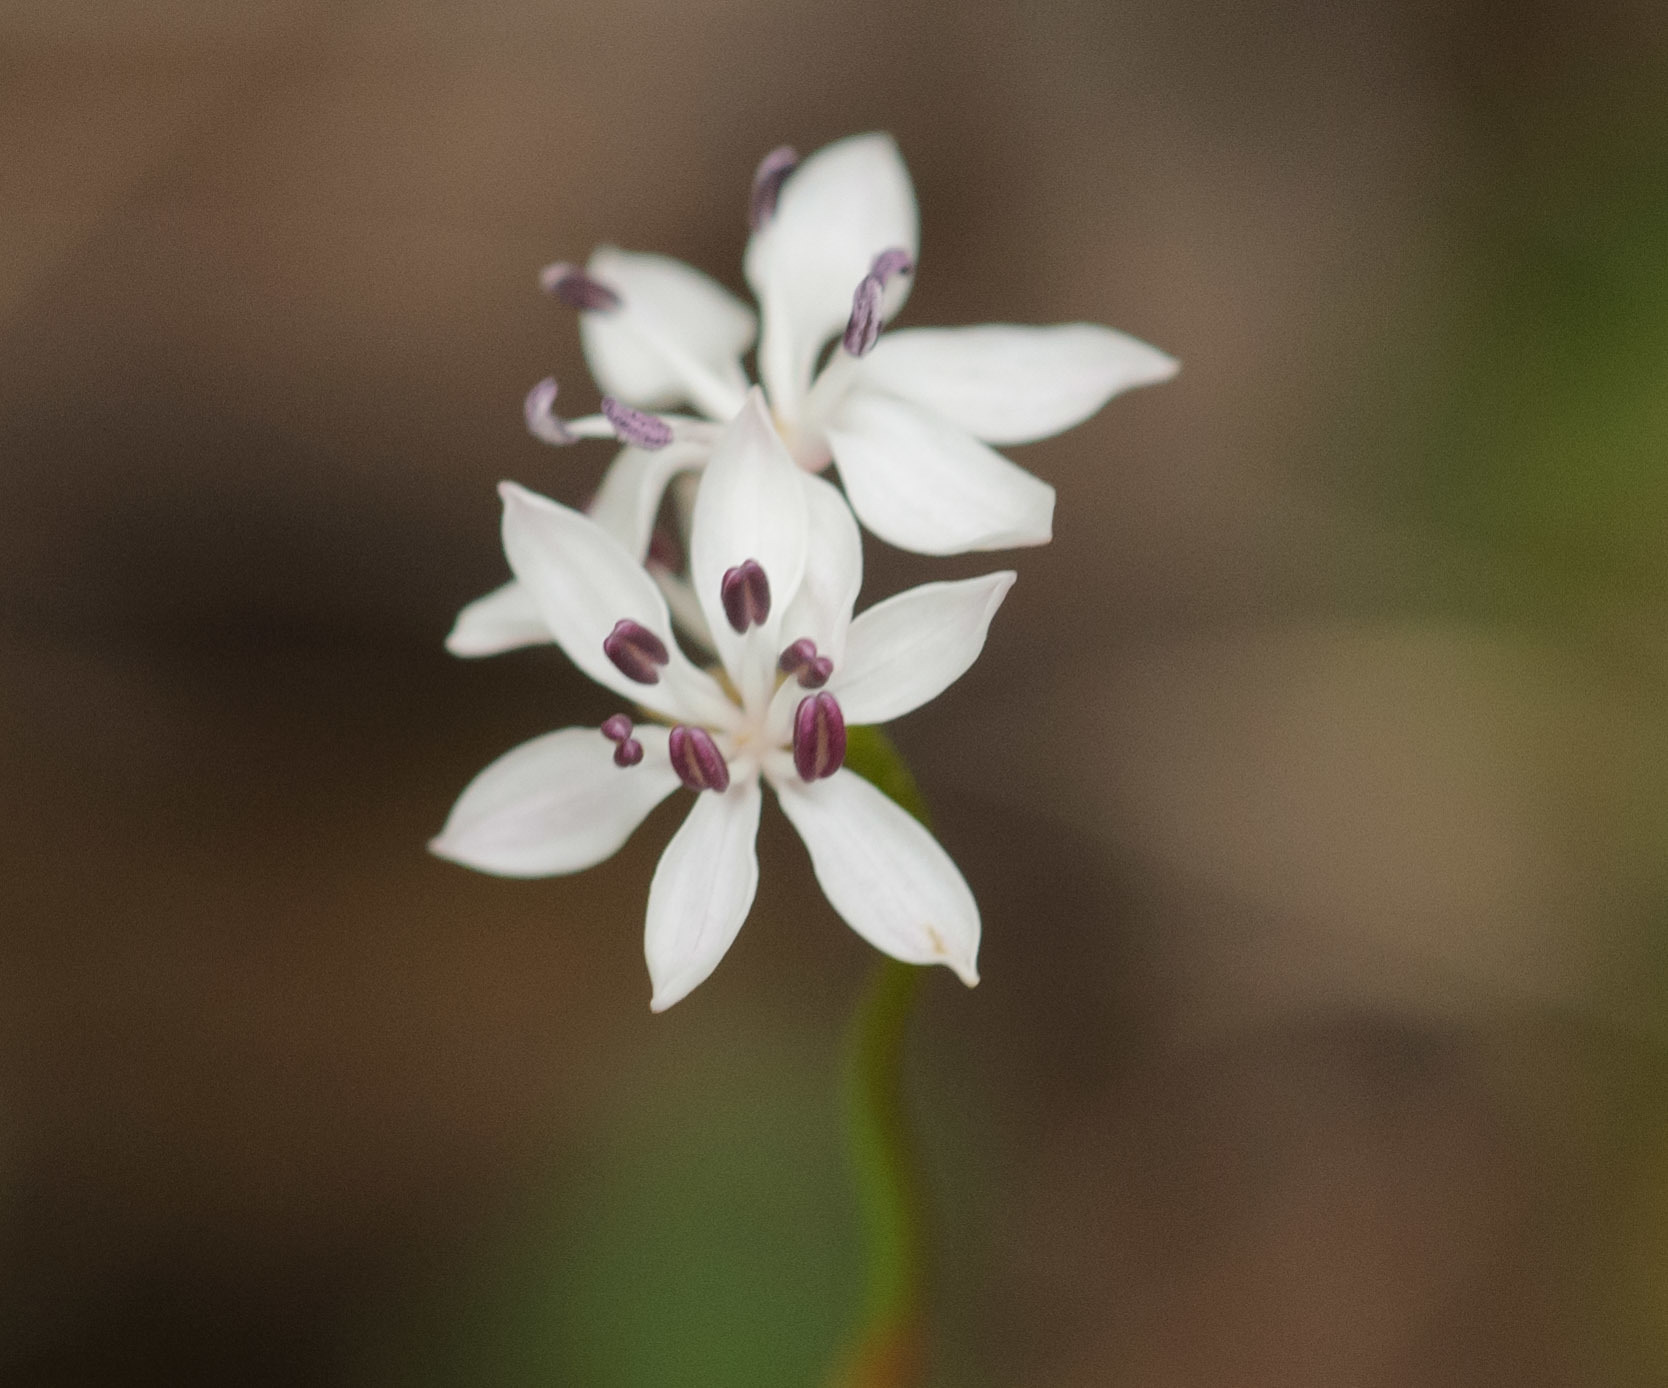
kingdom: Plantae
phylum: Tracheophyta
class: Liliopsida
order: Liliales
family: Colchicaceae
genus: Burchardia
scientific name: Burchardia umbellata
